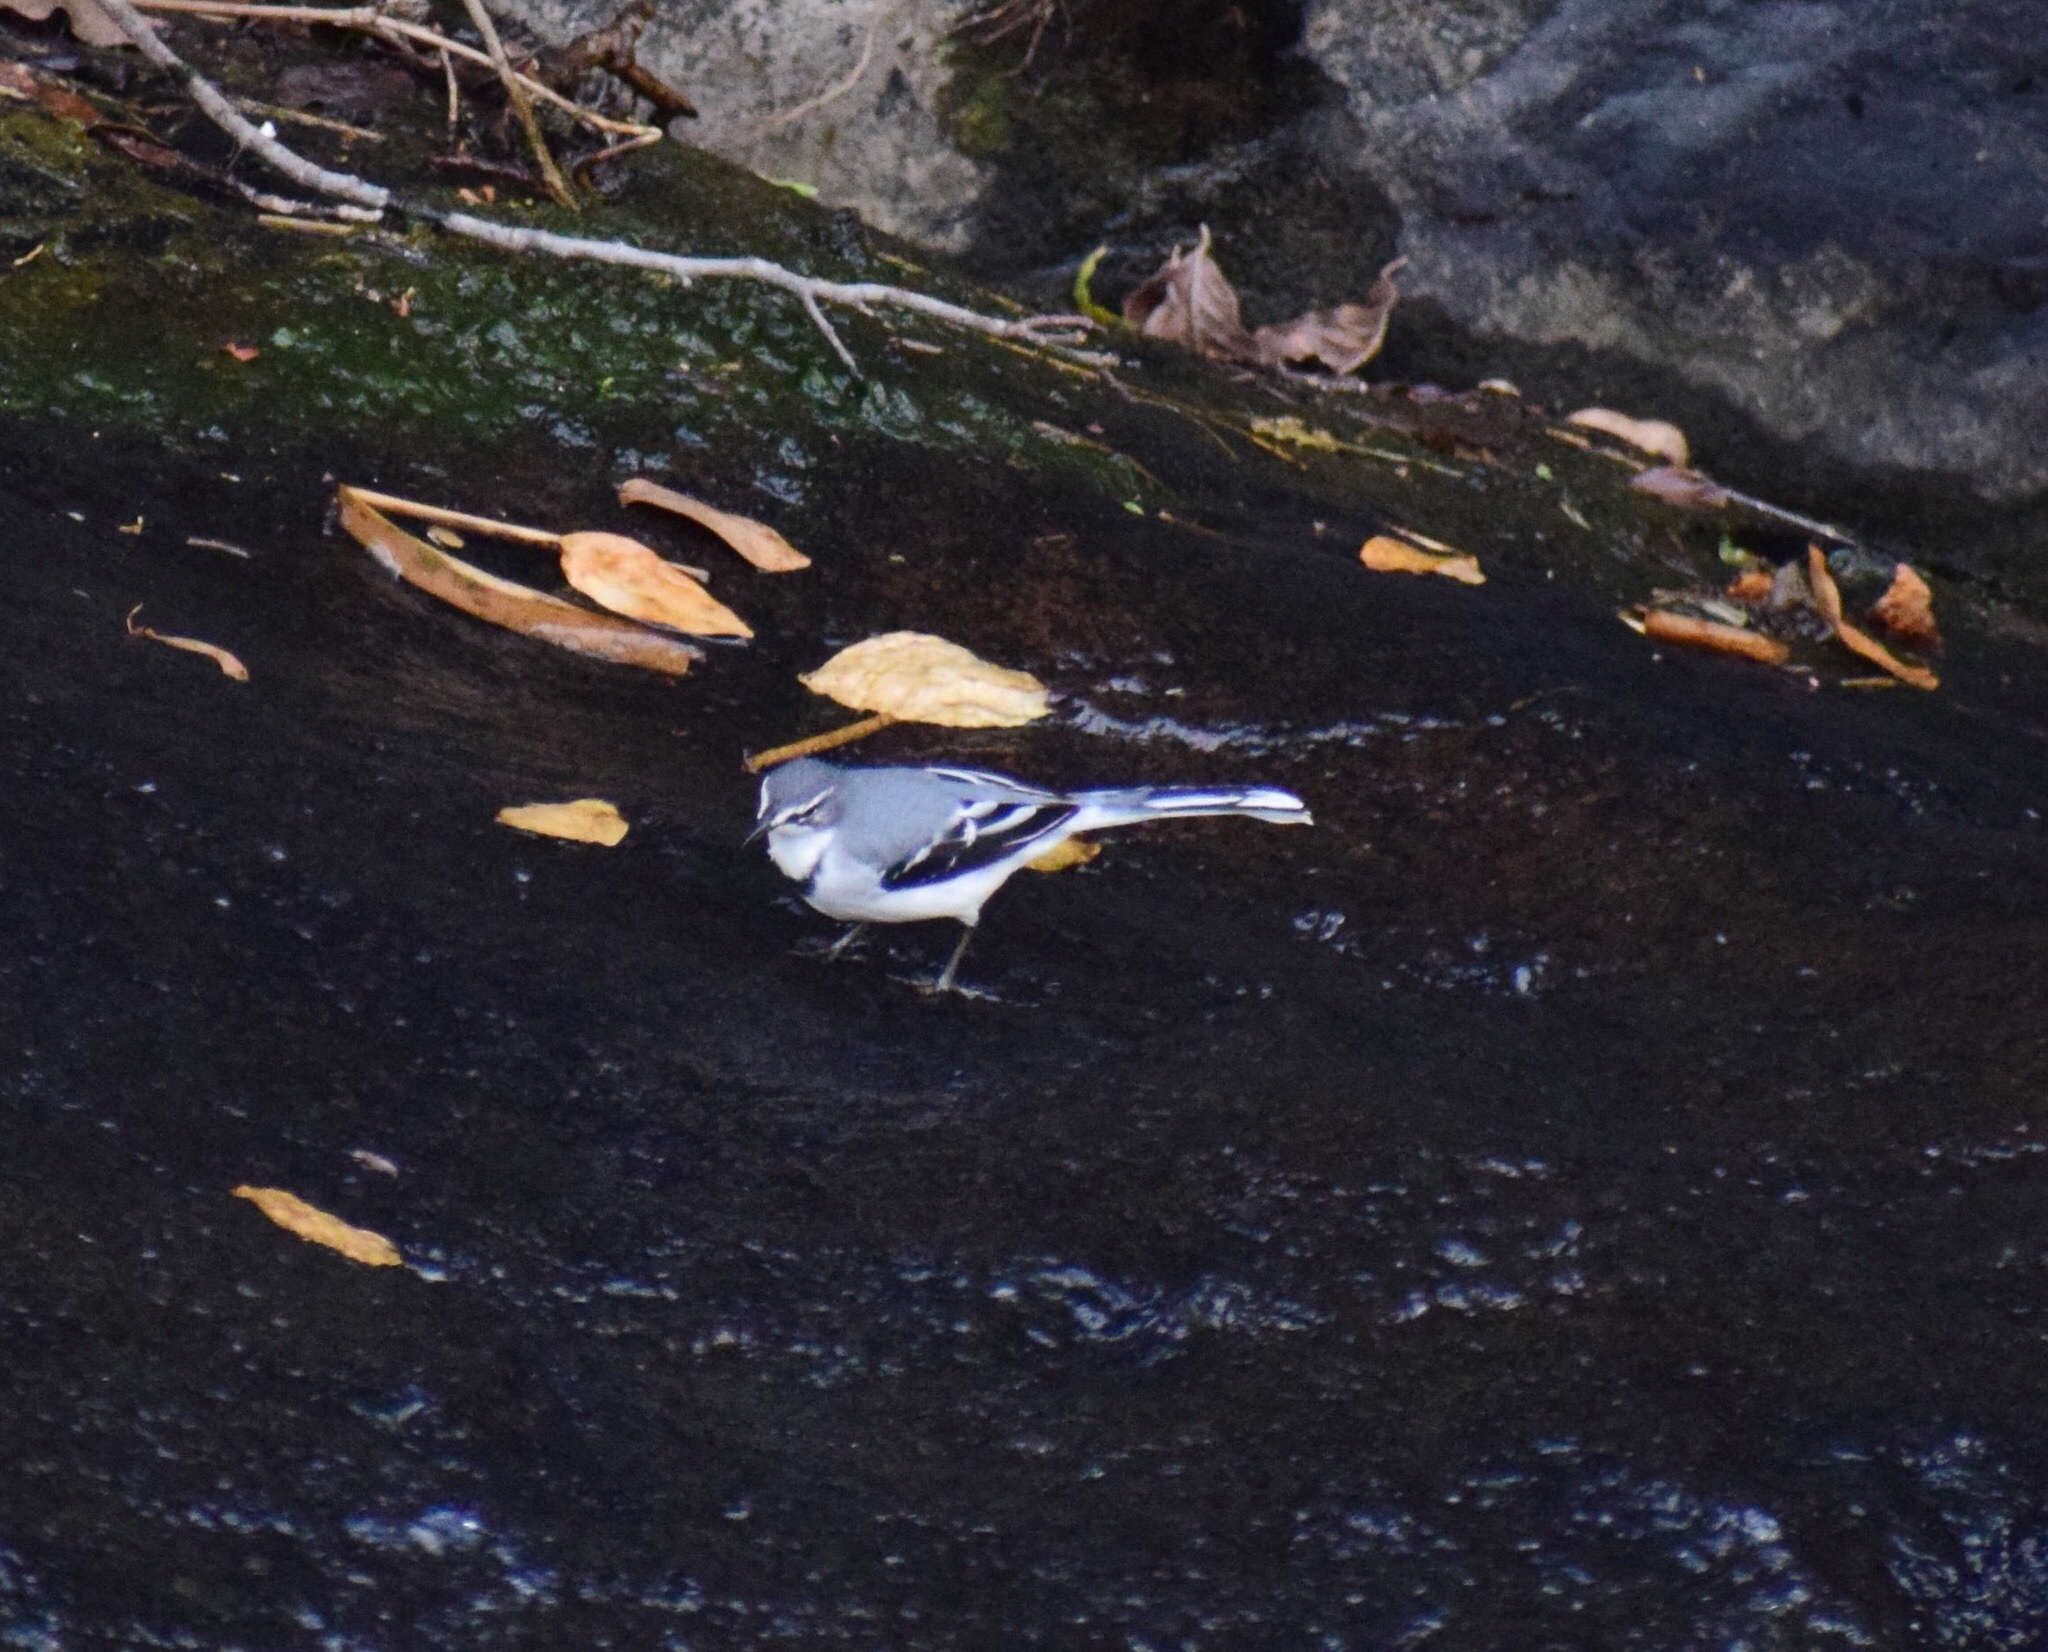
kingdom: Animalia
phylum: Chordata
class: Aves
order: Passeriformes
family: Motacillidae
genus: Motacilla
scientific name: Motacilla clara
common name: Mountain wagtail
